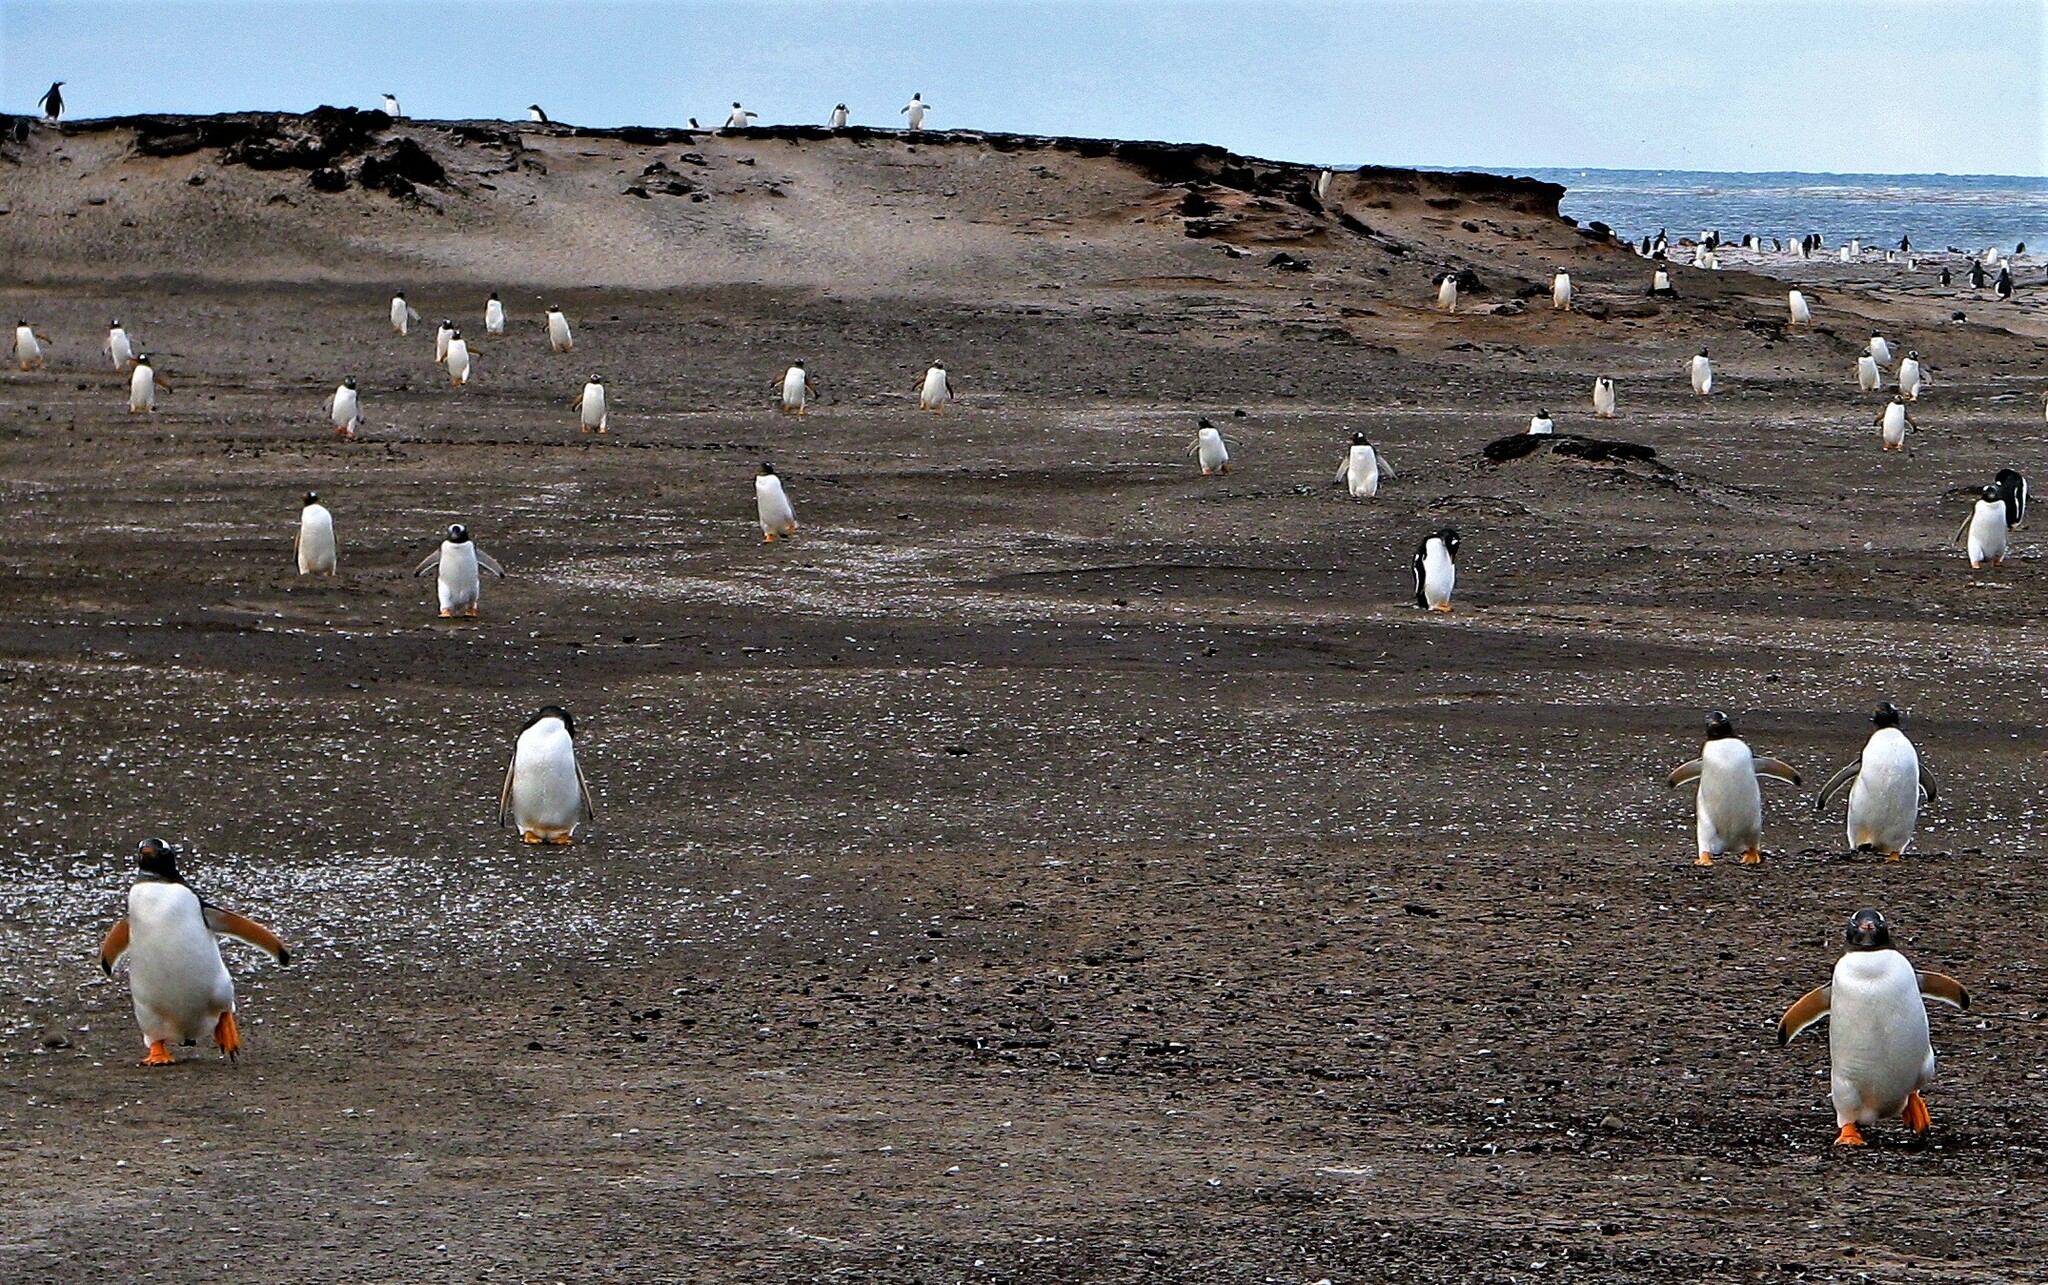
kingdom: Animalia
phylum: Chordata
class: Aves
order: Sphenisciformes
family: Spheniscidae
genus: Pygoscelis
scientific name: Pygoscelis papua
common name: Gentoo penguin
